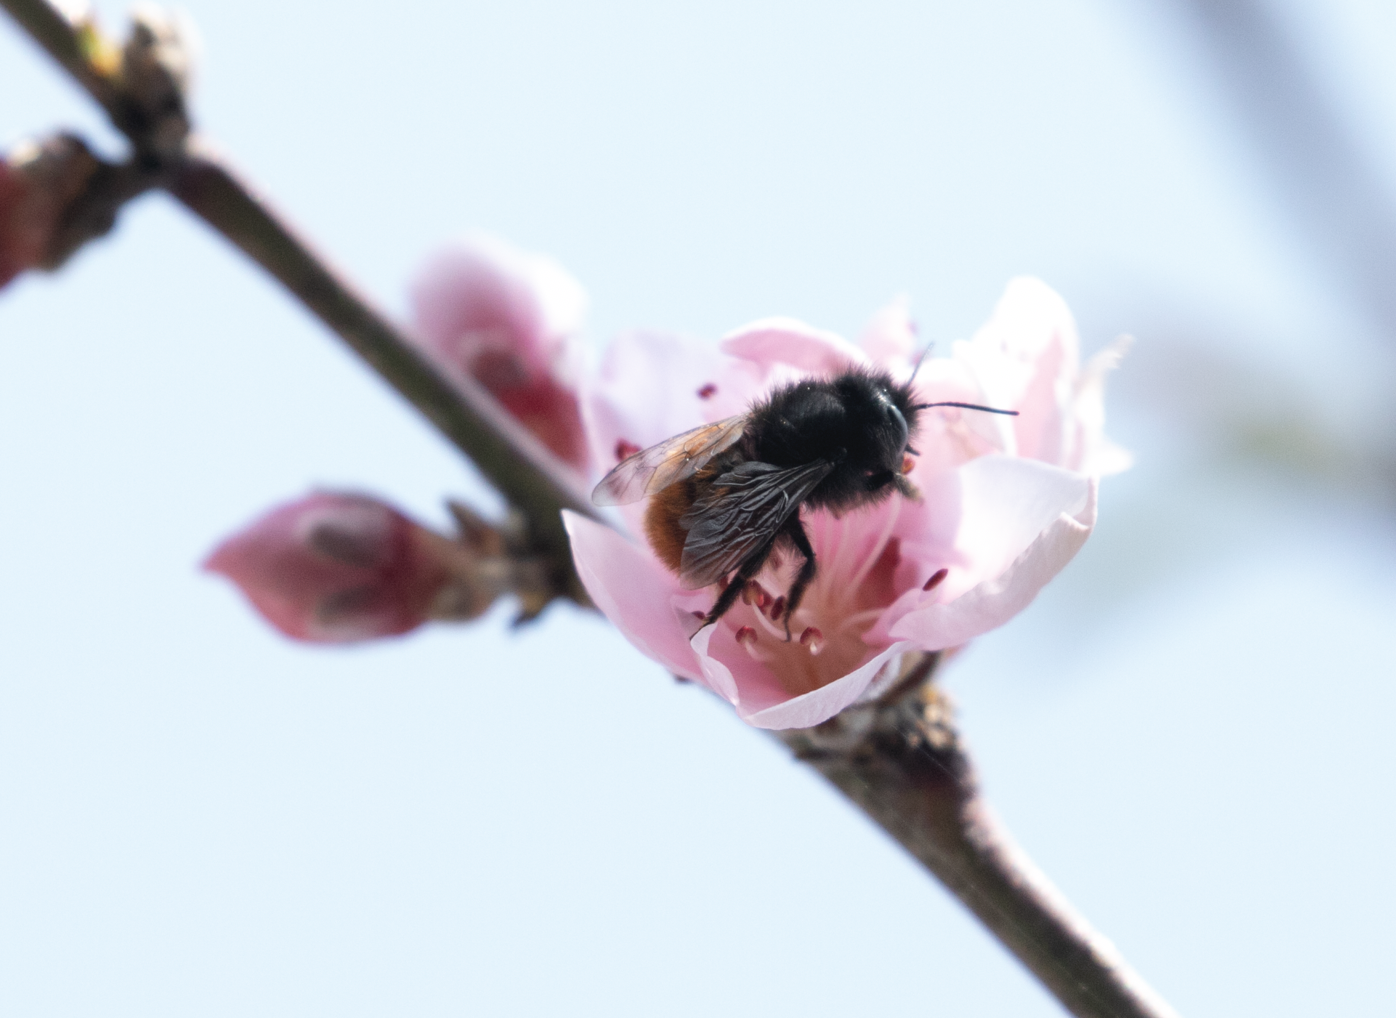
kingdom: Animalia
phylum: Arthropoda
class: Insecta
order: Hymenoptera
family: Megachilidae
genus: Osmia
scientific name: Osmia cornuta
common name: Mason bee
